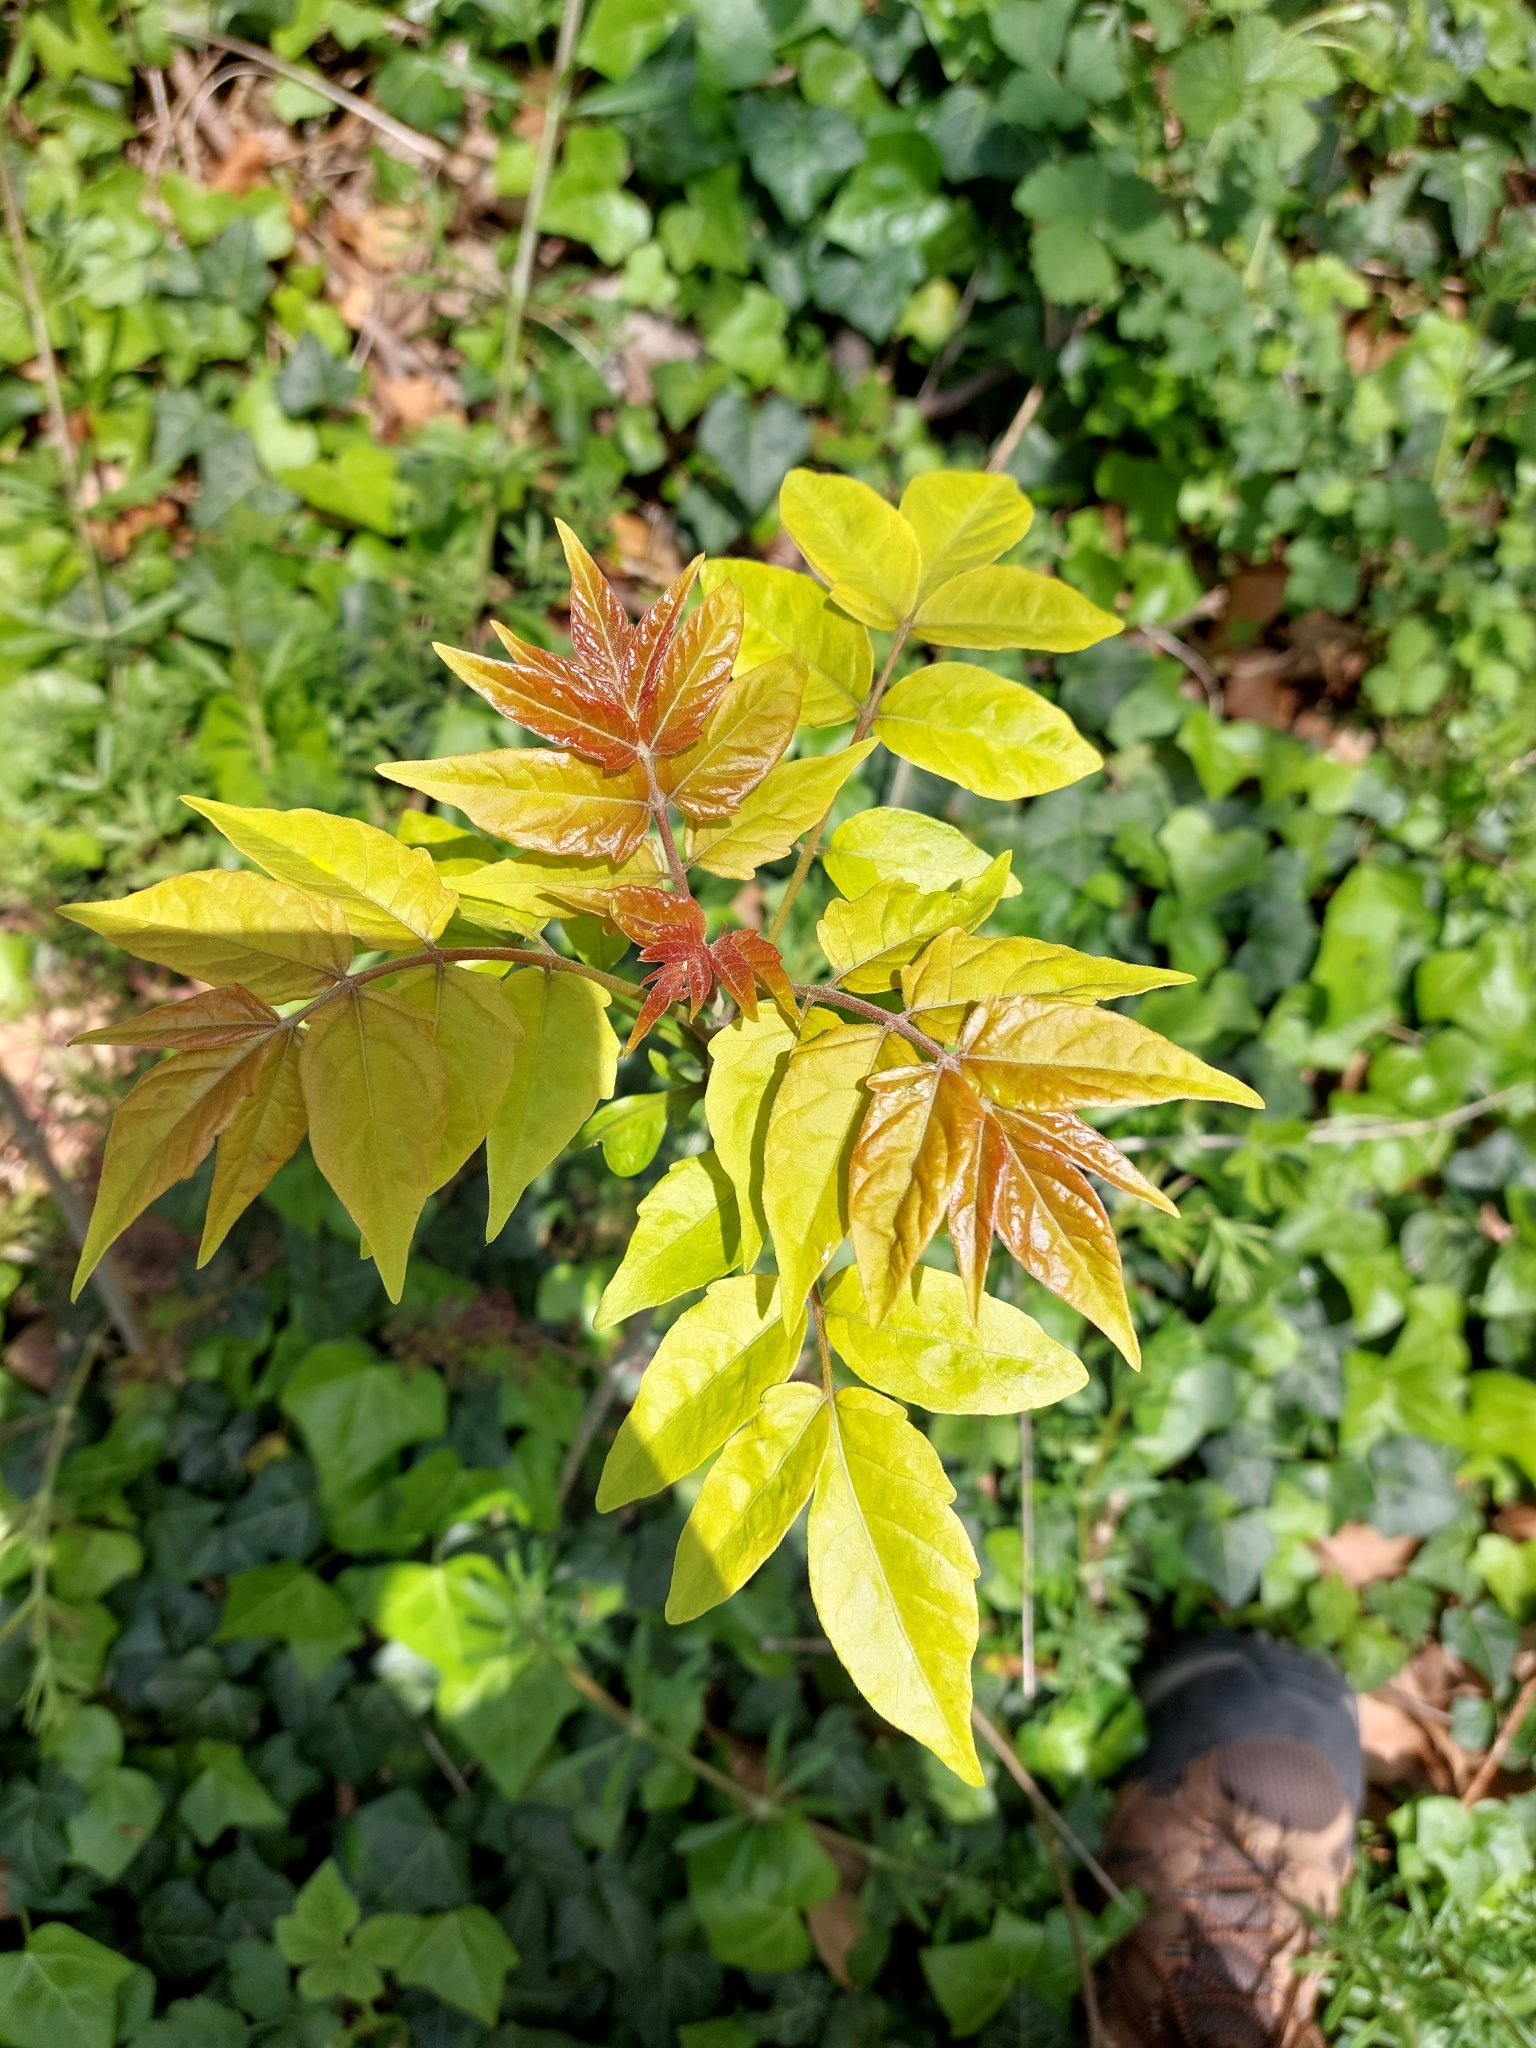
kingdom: Plantae
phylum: Tracheophyta
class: Magnoliopsida
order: Sapindales
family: Simaroubaceae
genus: Ailanthus
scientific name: Ailanthus altissima
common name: Tree-of-heaven
